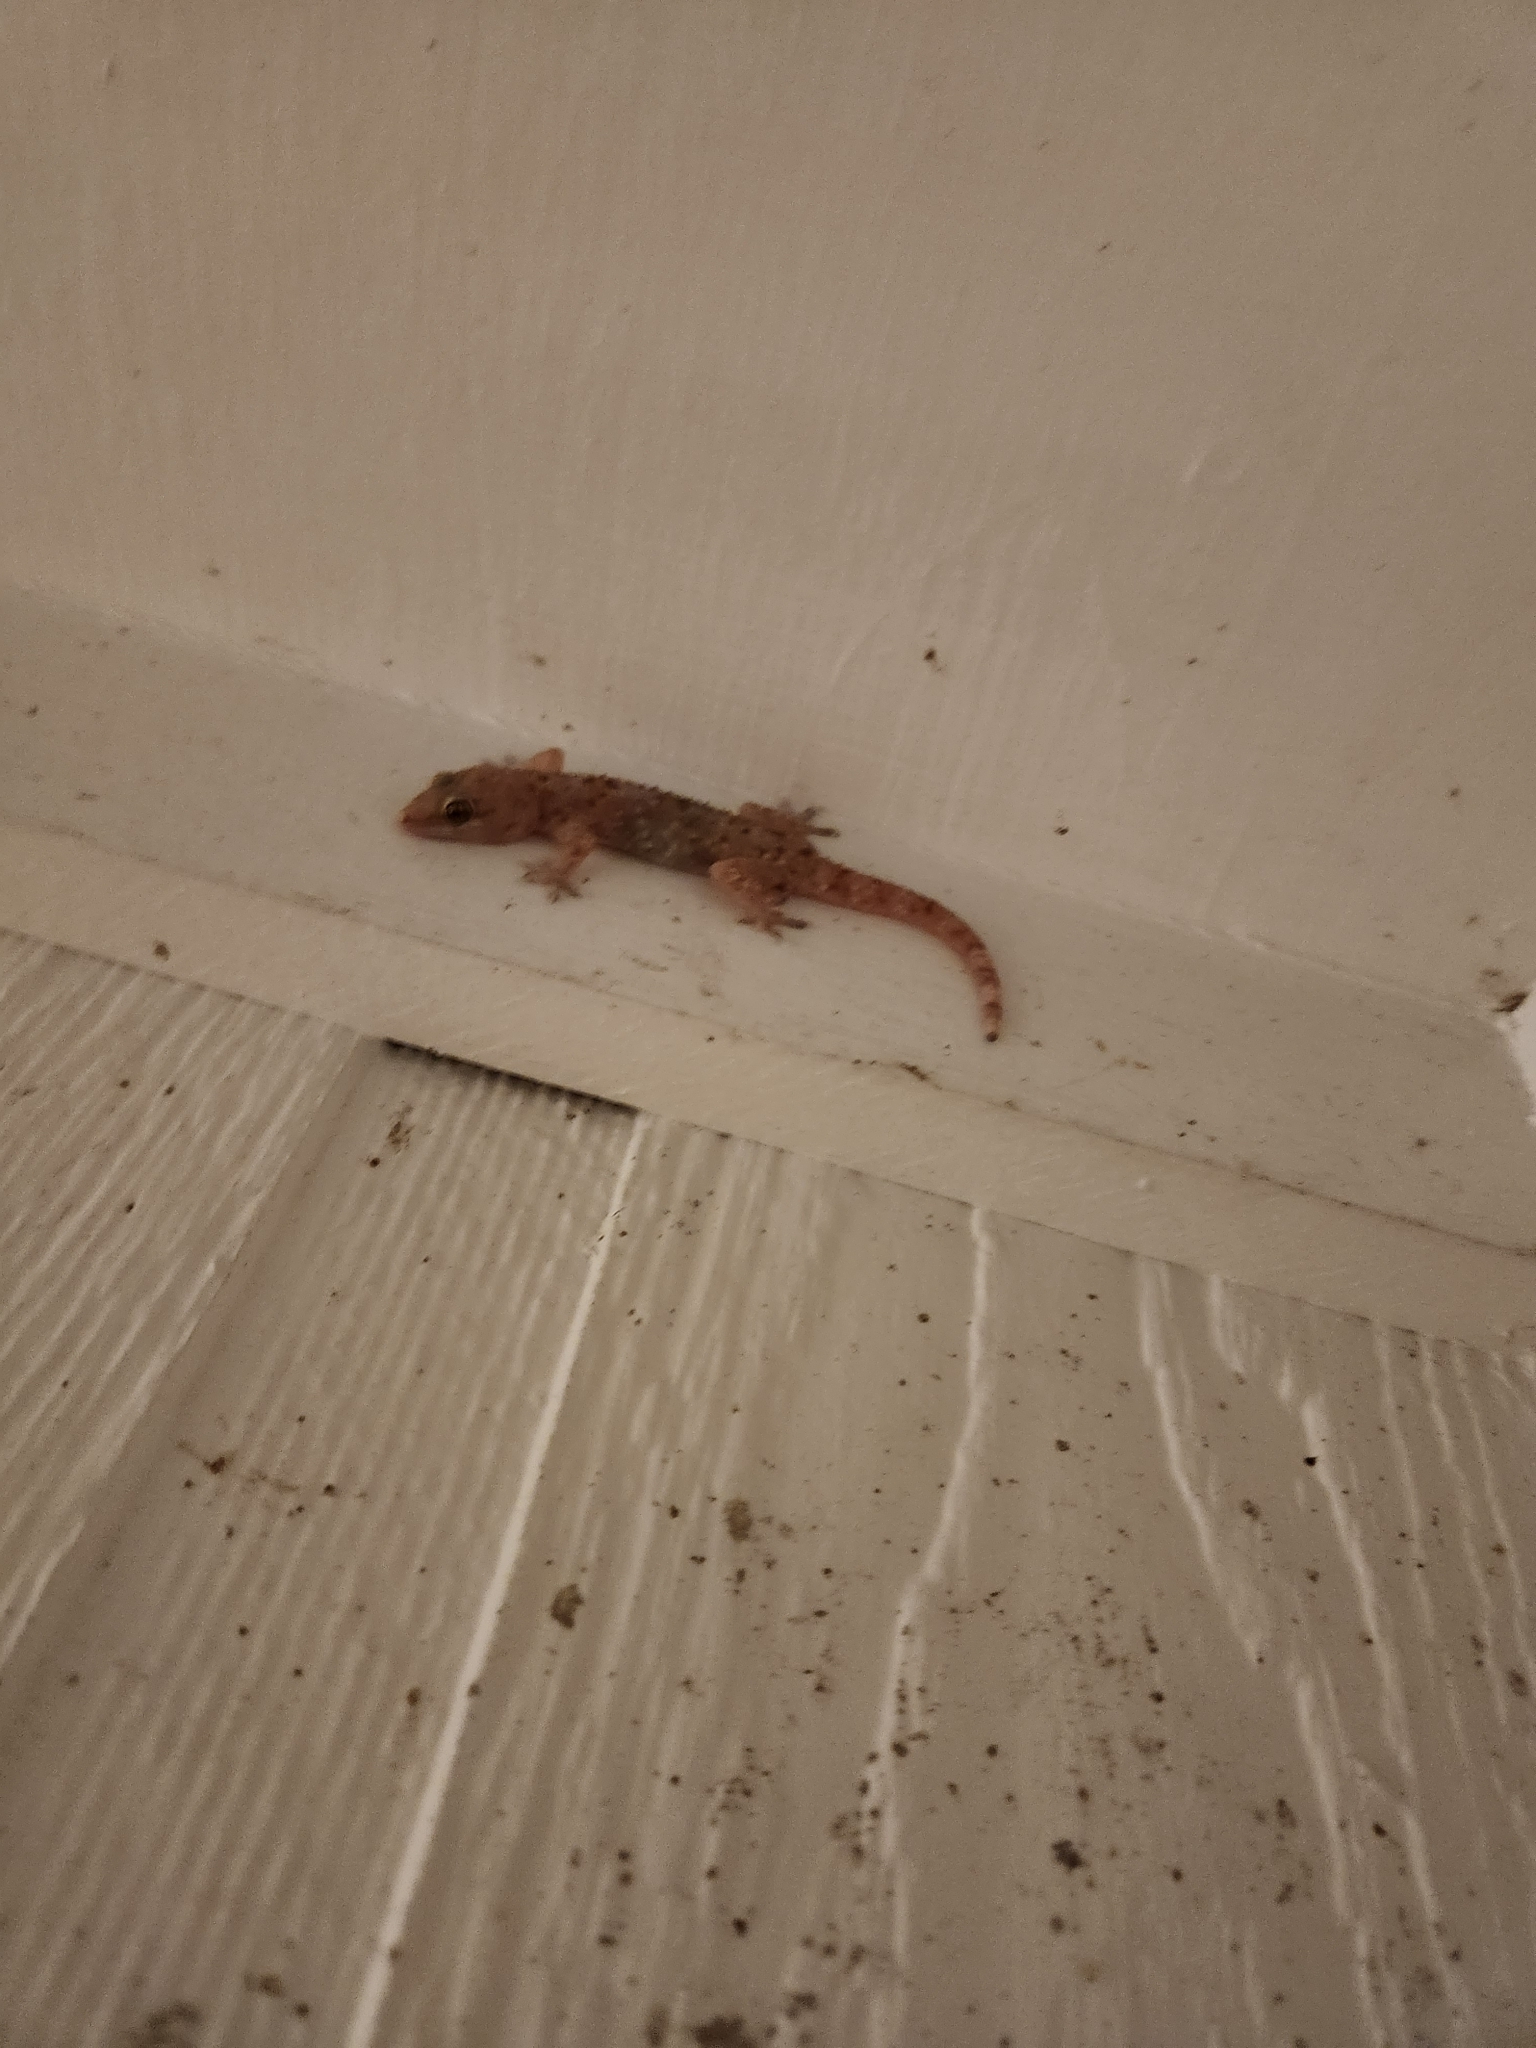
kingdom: Animalia
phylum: Chordata
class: Squamata
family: Gekkonidae
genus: Hemidactylus
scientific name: Hemidactylus turcicus
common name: Turkish gecko
